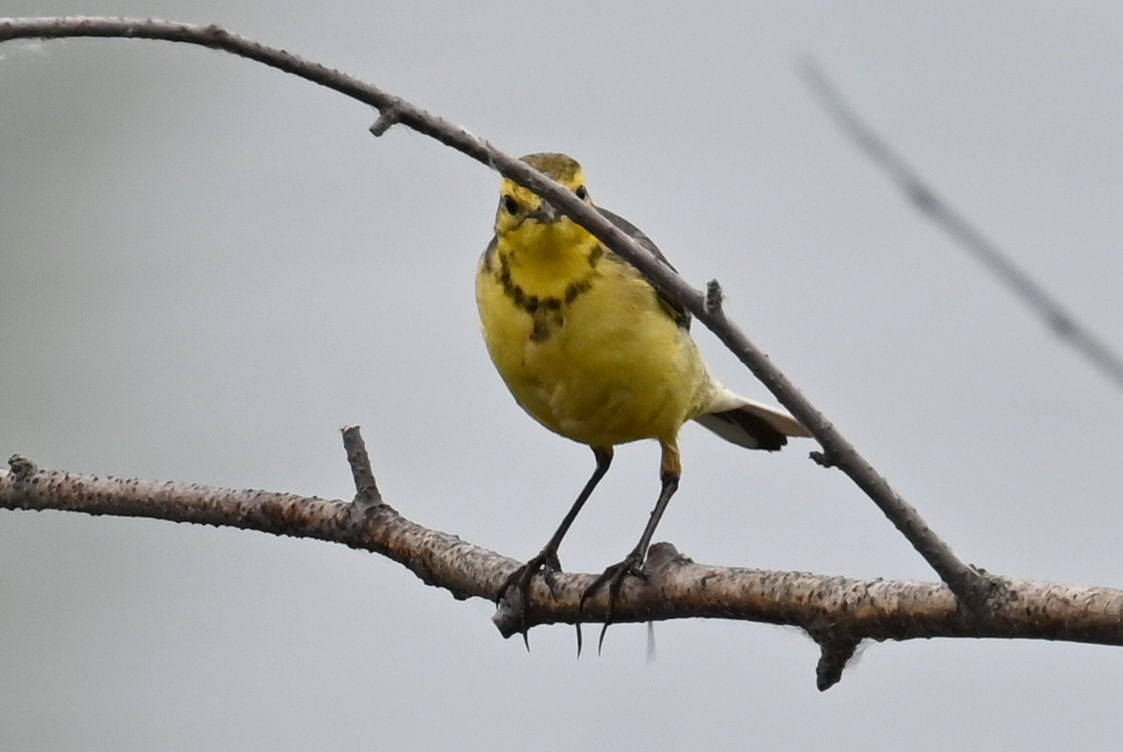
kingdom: Animalia
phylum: Chordata
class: Aves
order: Passeriformes
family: Motacillidae
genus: Motacilla
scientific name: Motacilla citreola
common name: Citrine wagtail
